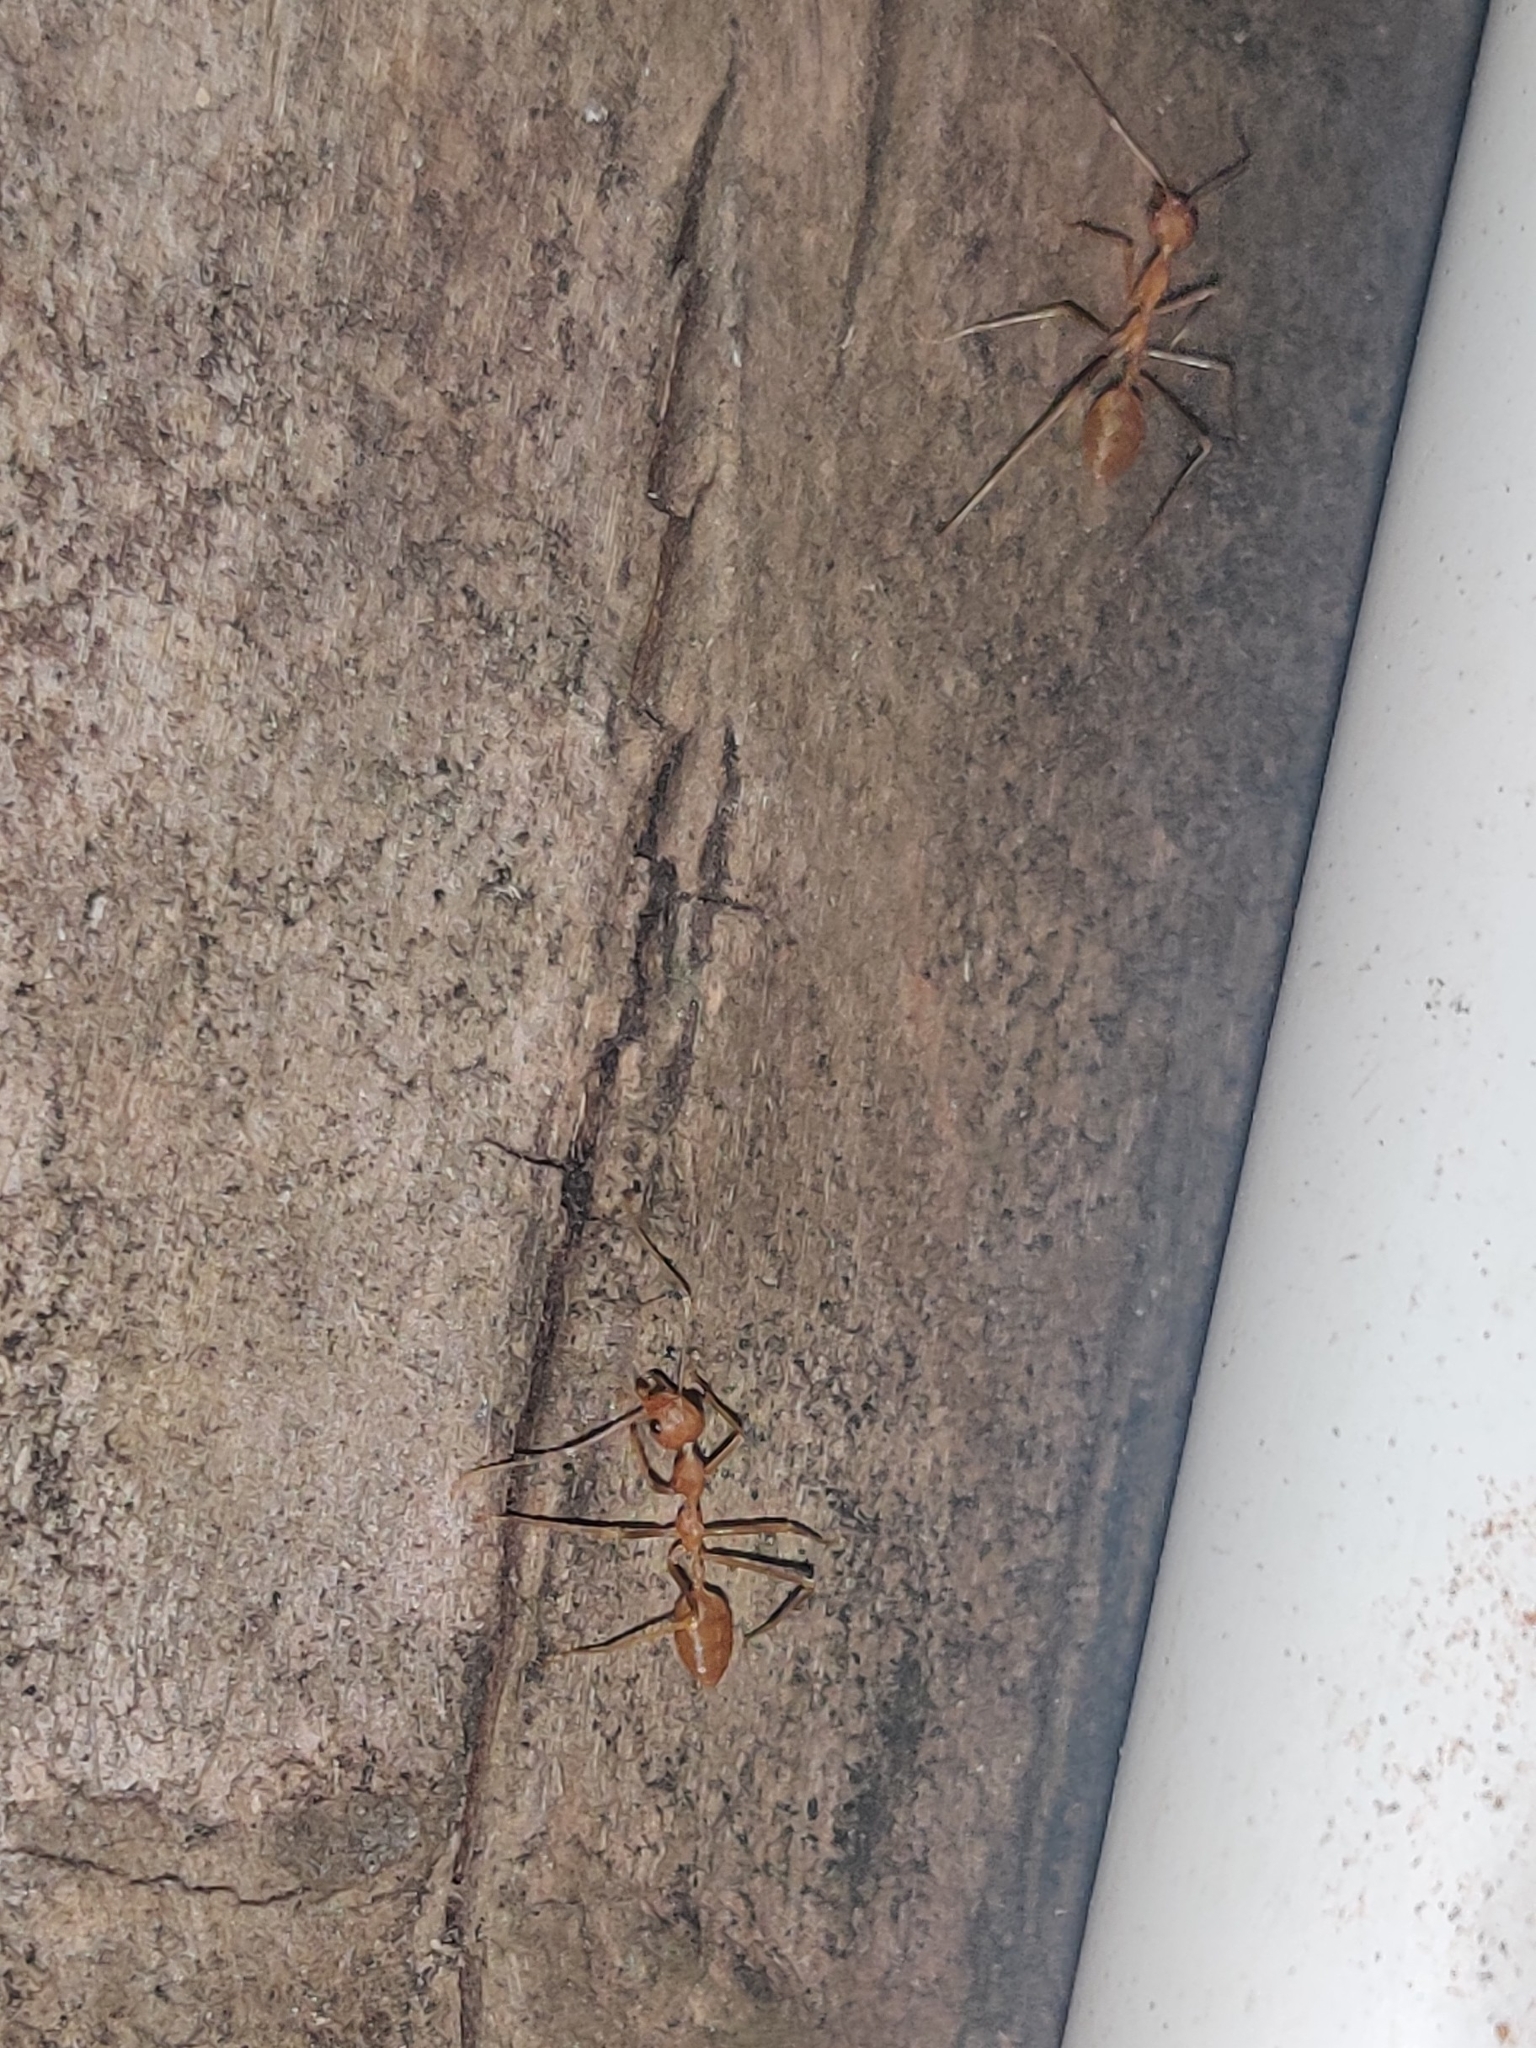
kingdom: Animalia
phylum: Arthropoda
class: Insecta
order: Hymenoptera
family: Formicidae
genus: Oecophylla
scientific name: Oecophylla smaragdina
